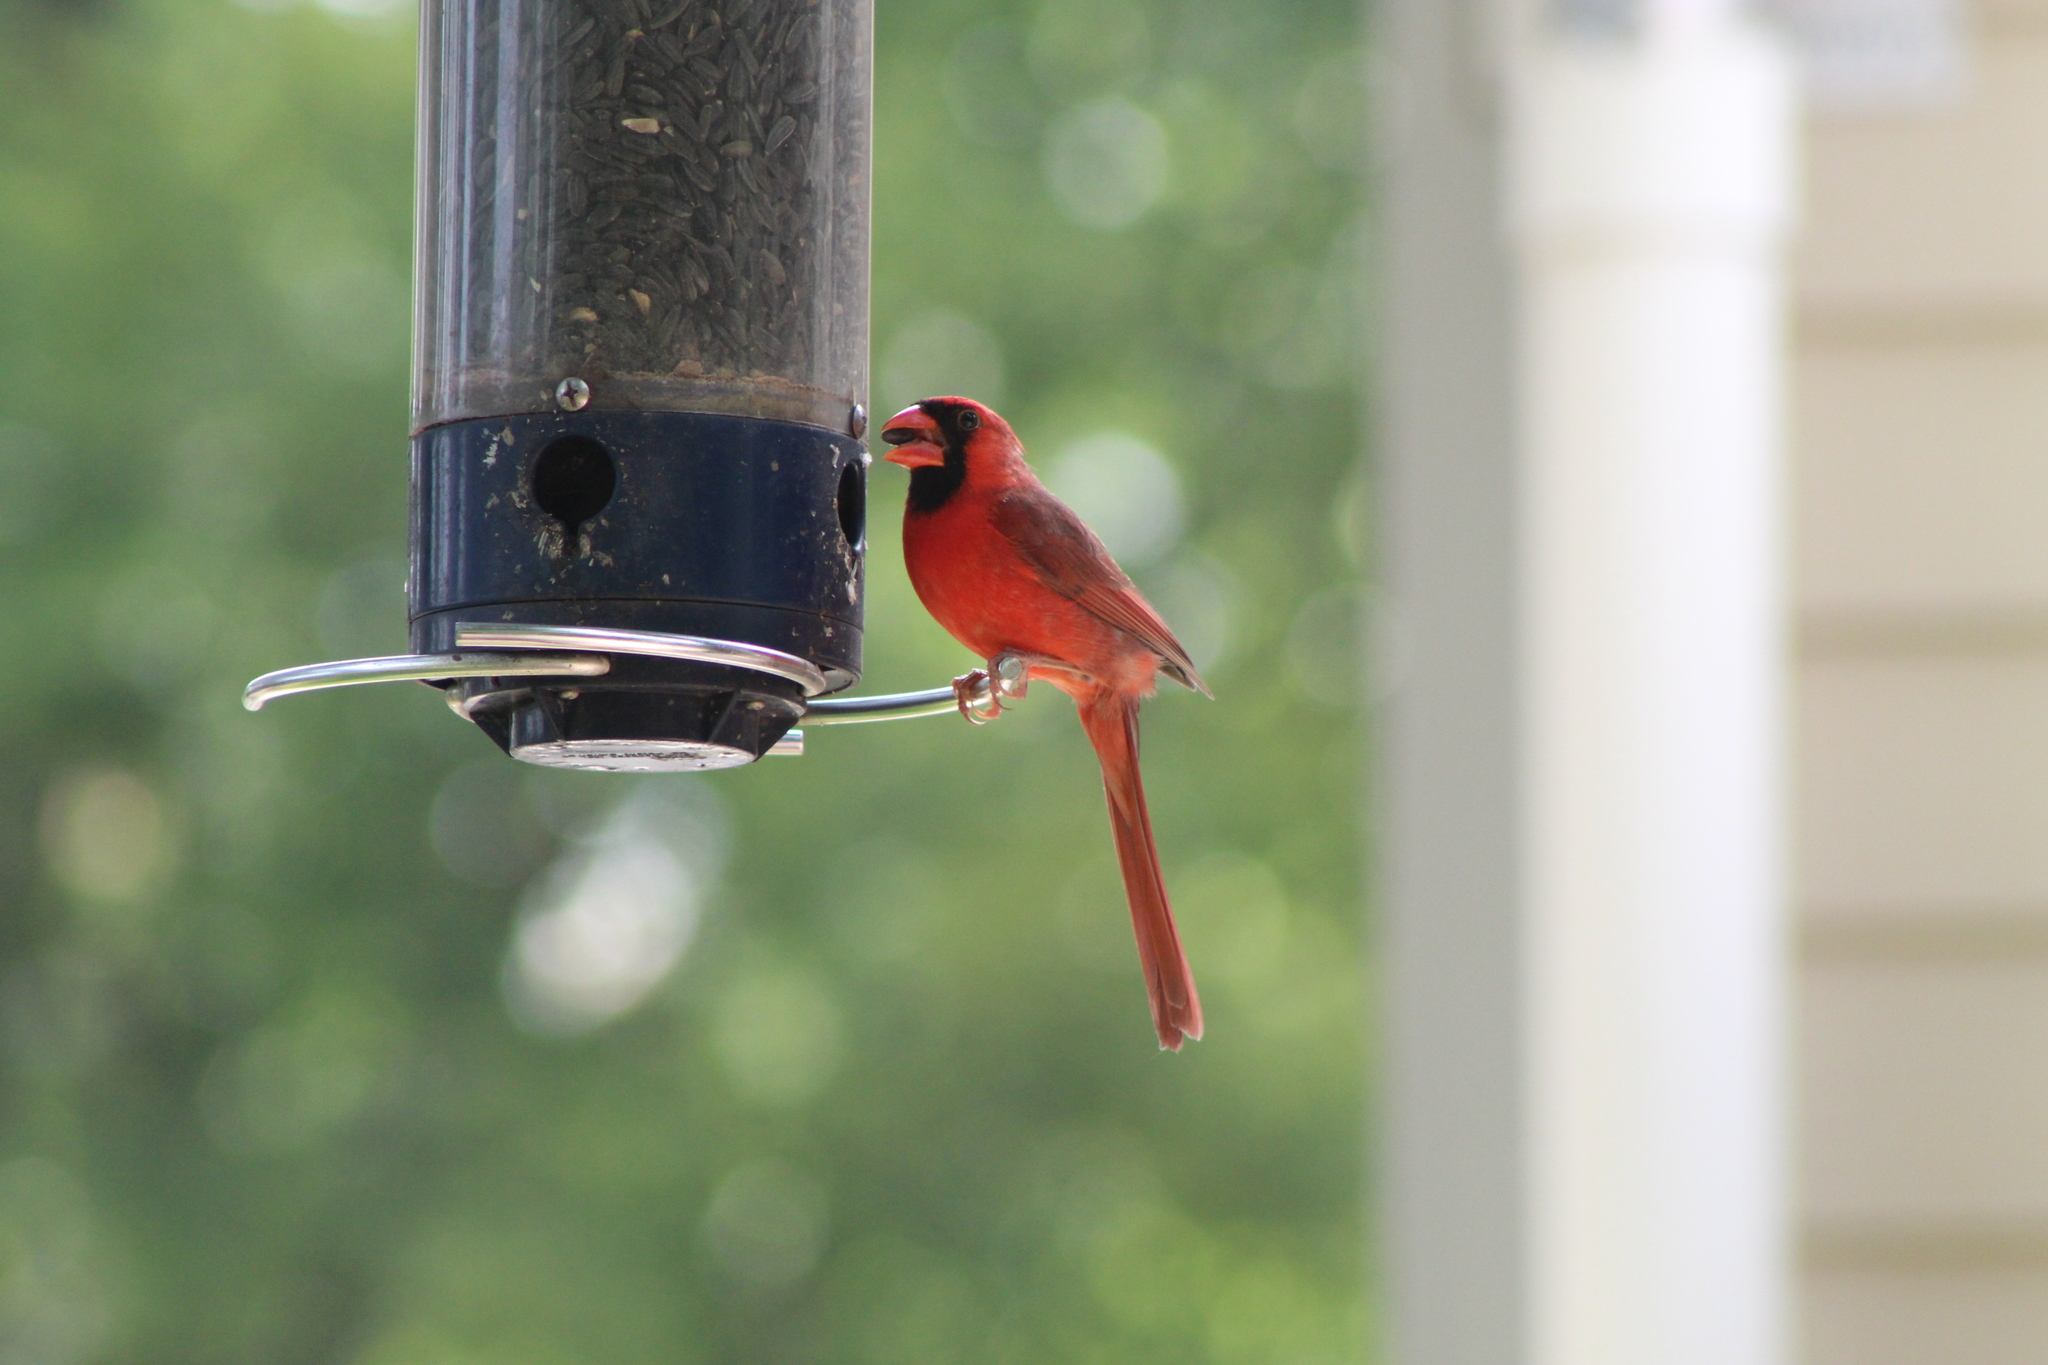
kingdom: Animalia
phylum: Chordata
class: Aves
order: Passeriformes
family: Cardinalidae
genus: Cardinalis
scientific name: Cardinalis cardinalis
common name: Northern cardinal
